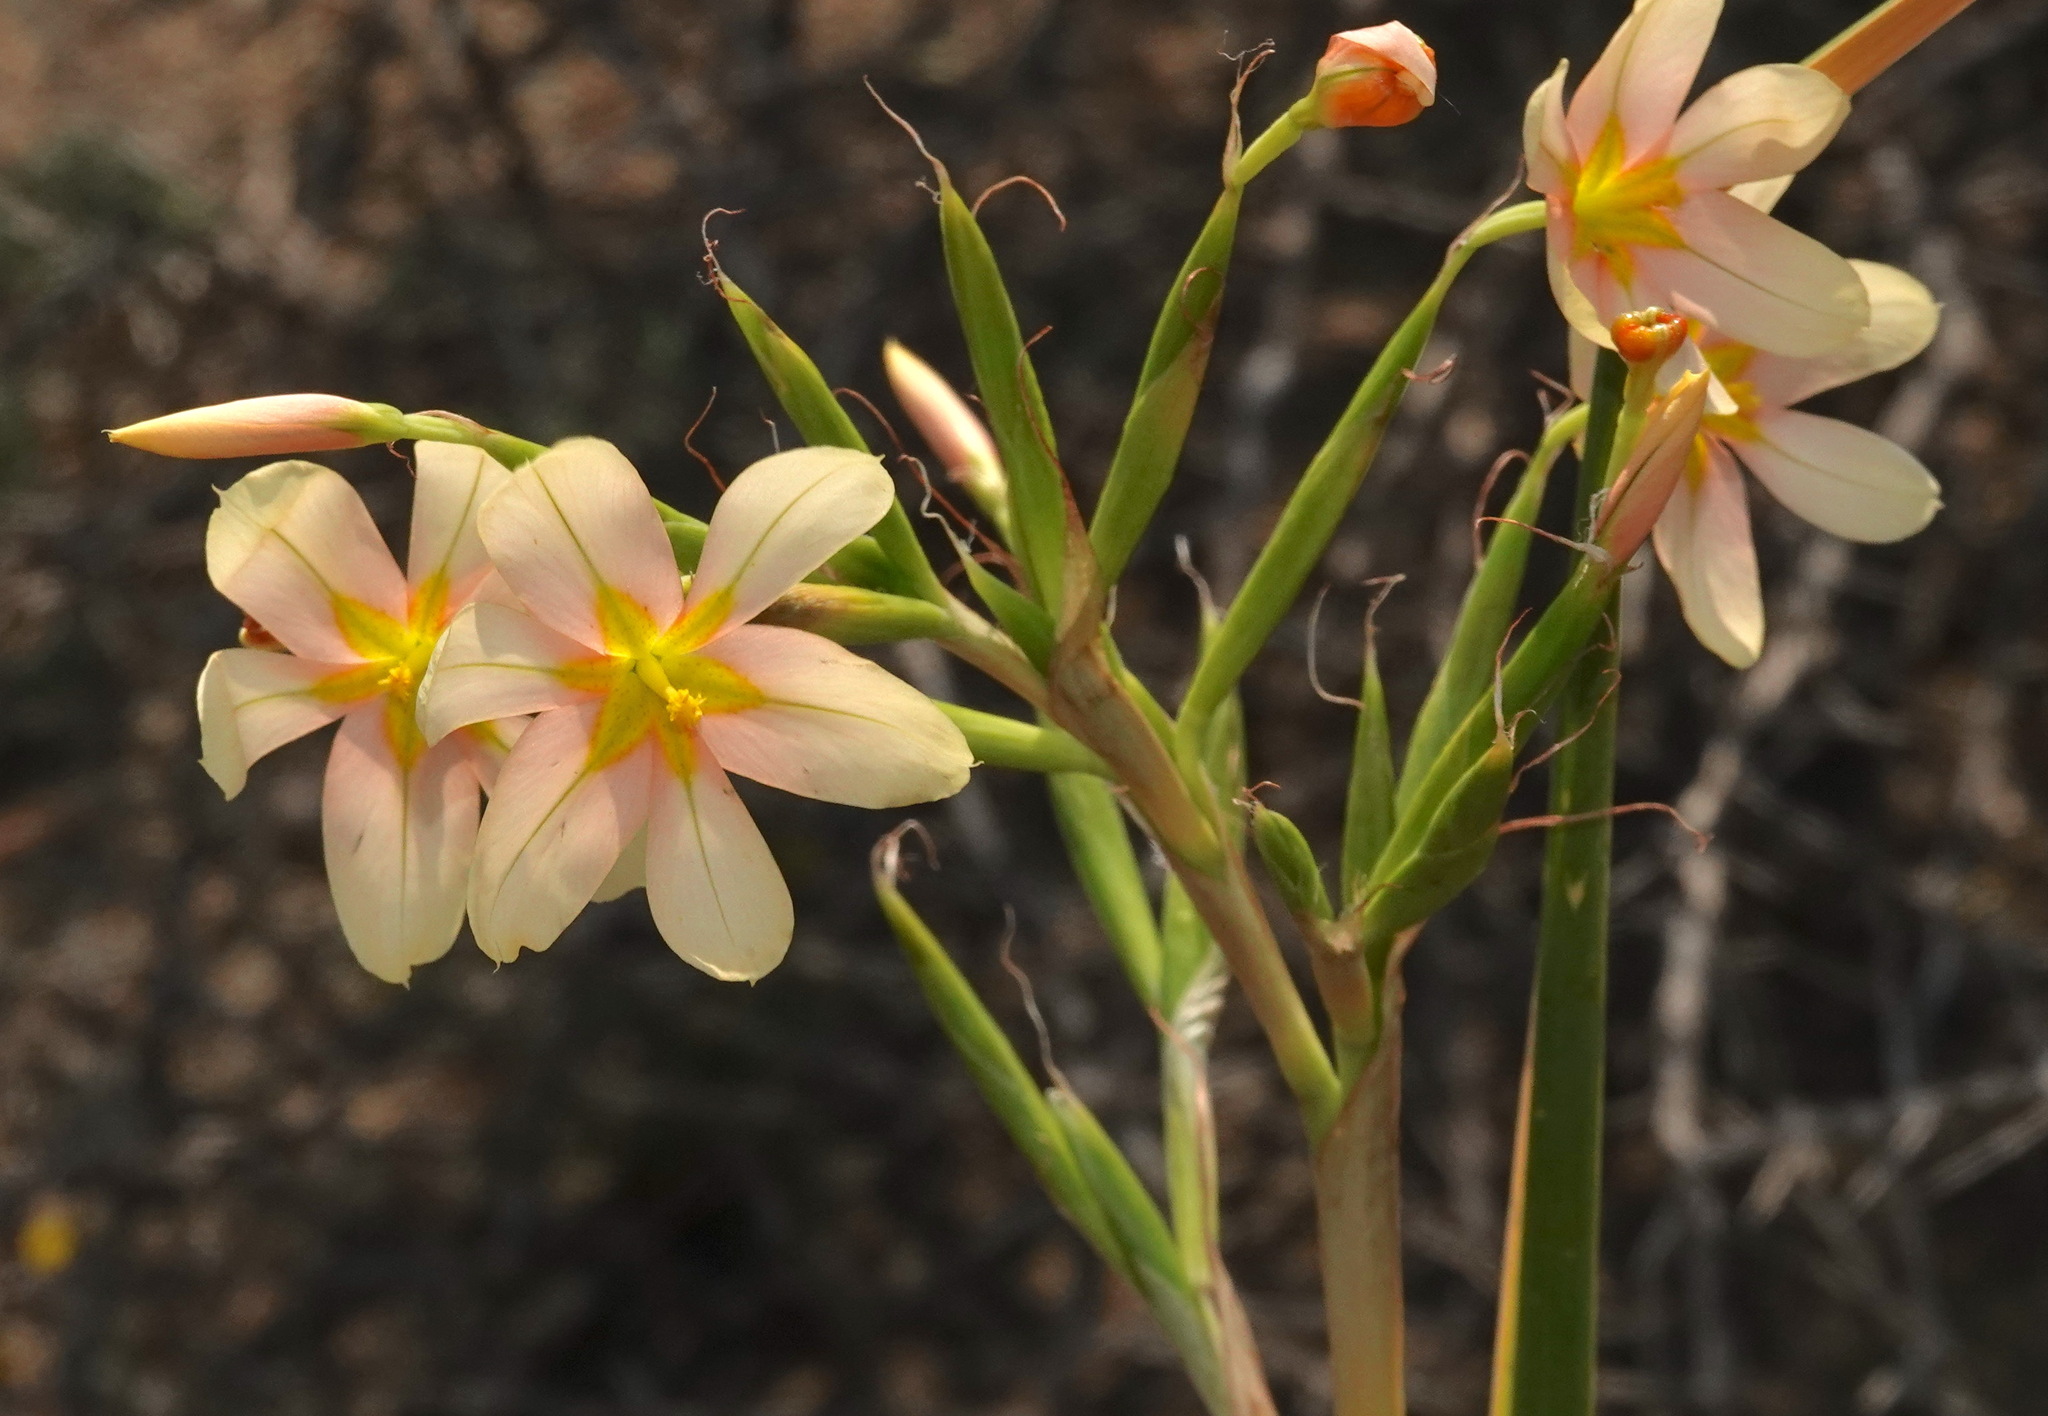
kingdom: Plantae
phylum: Tracheophyta
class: Liliopsida
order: Asparagales
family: Iridaceae
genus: Moraea
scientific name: Moraea miniata
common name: Two-leaf cape-tulip
